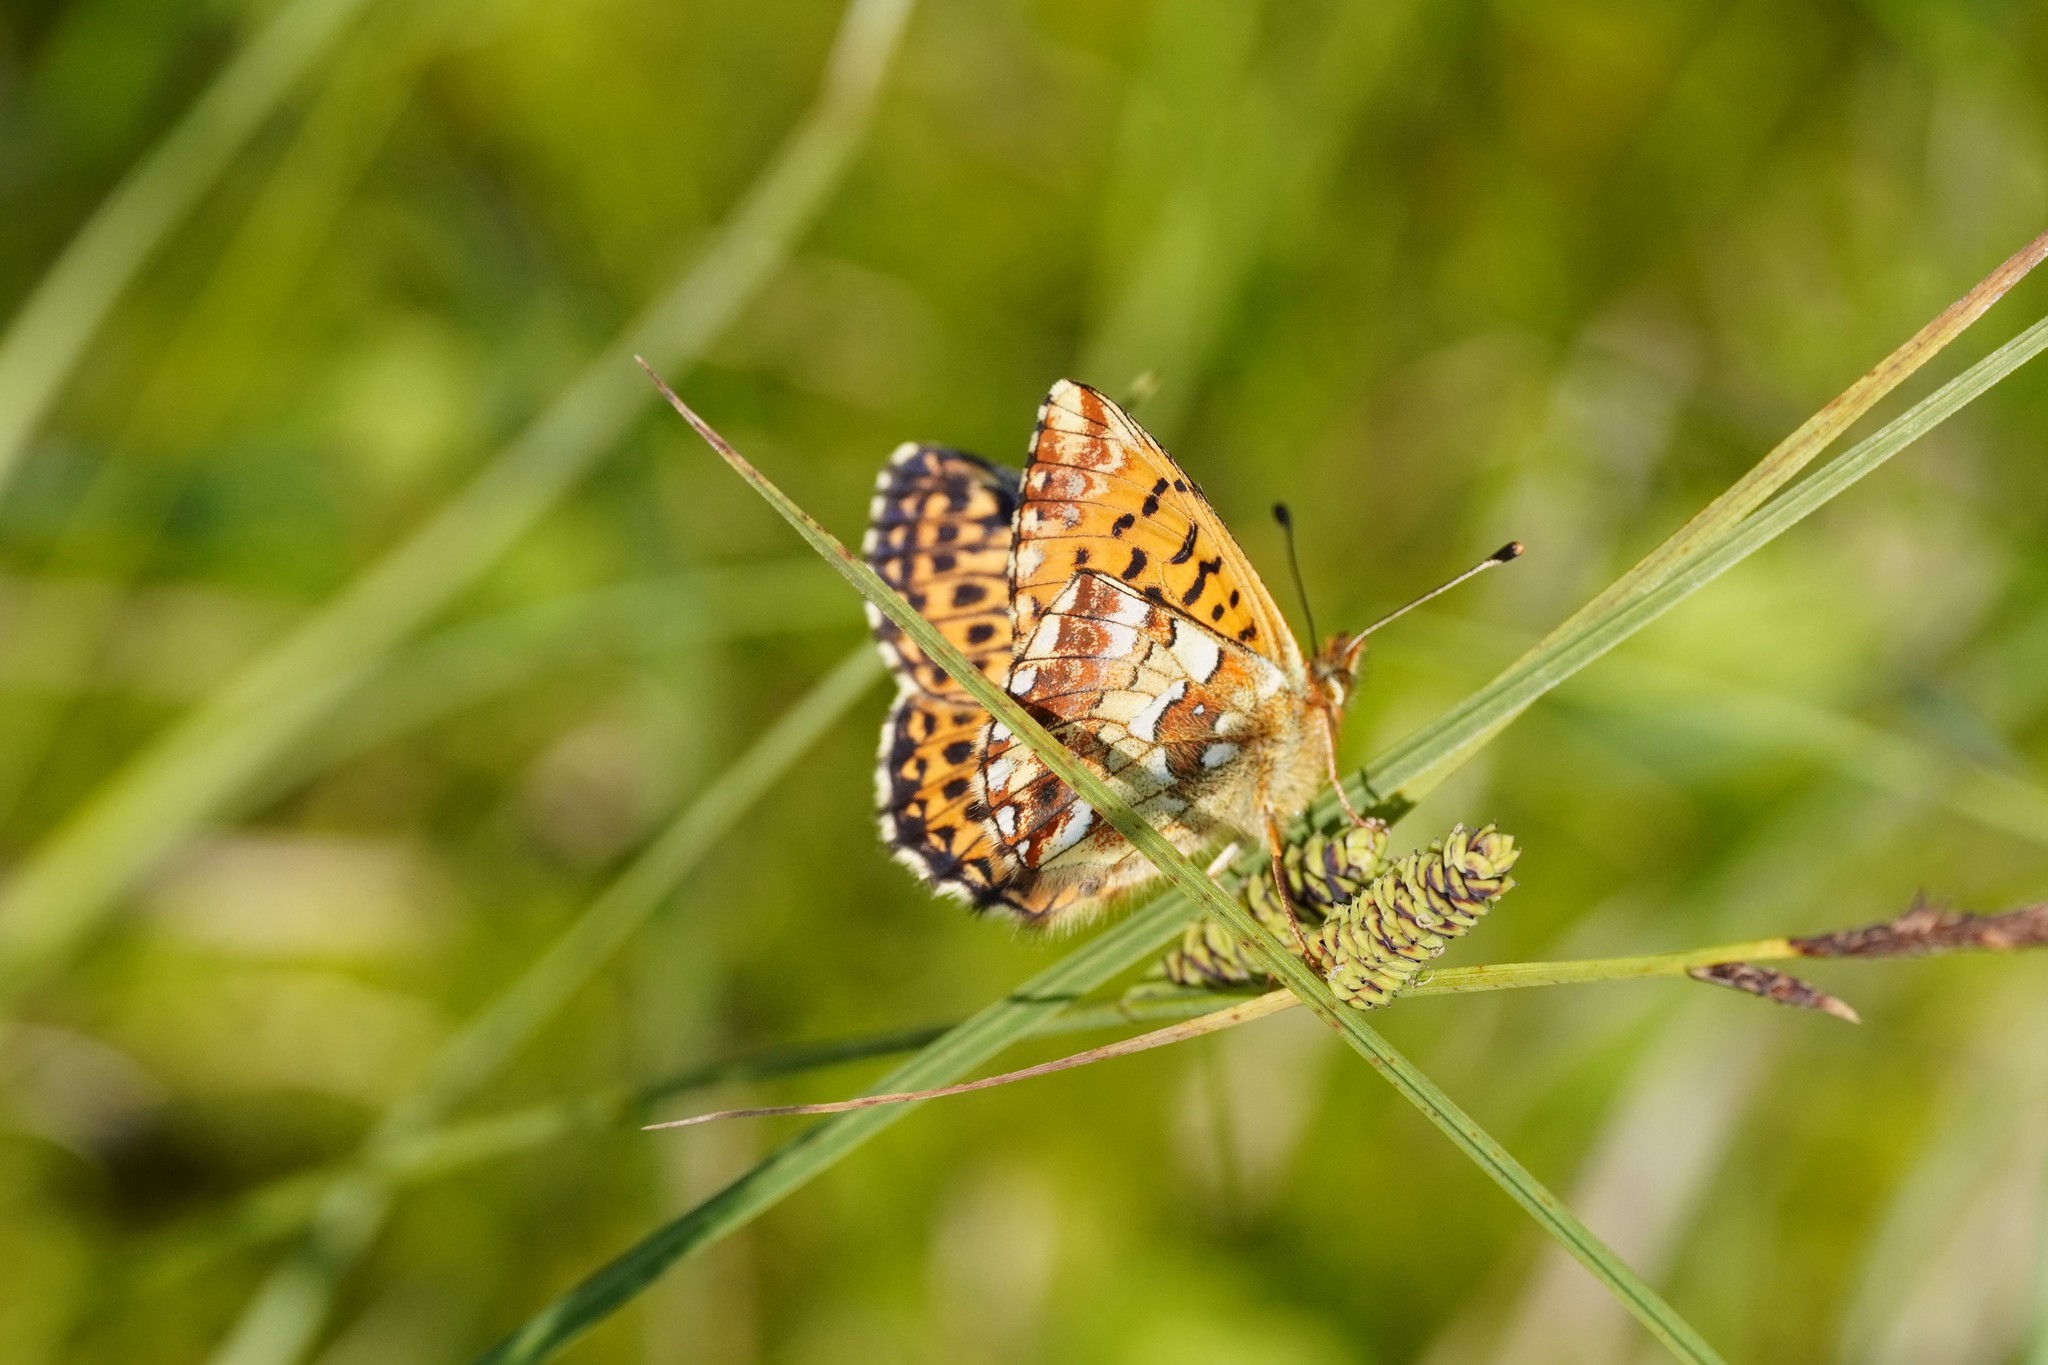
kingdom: Animalia
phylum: Arthropoda
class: Insecta
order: Lepidoptera
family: Nymphalidae
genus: Boloria
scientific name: Boloria aquilonaris
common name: Cranberry fritillary
